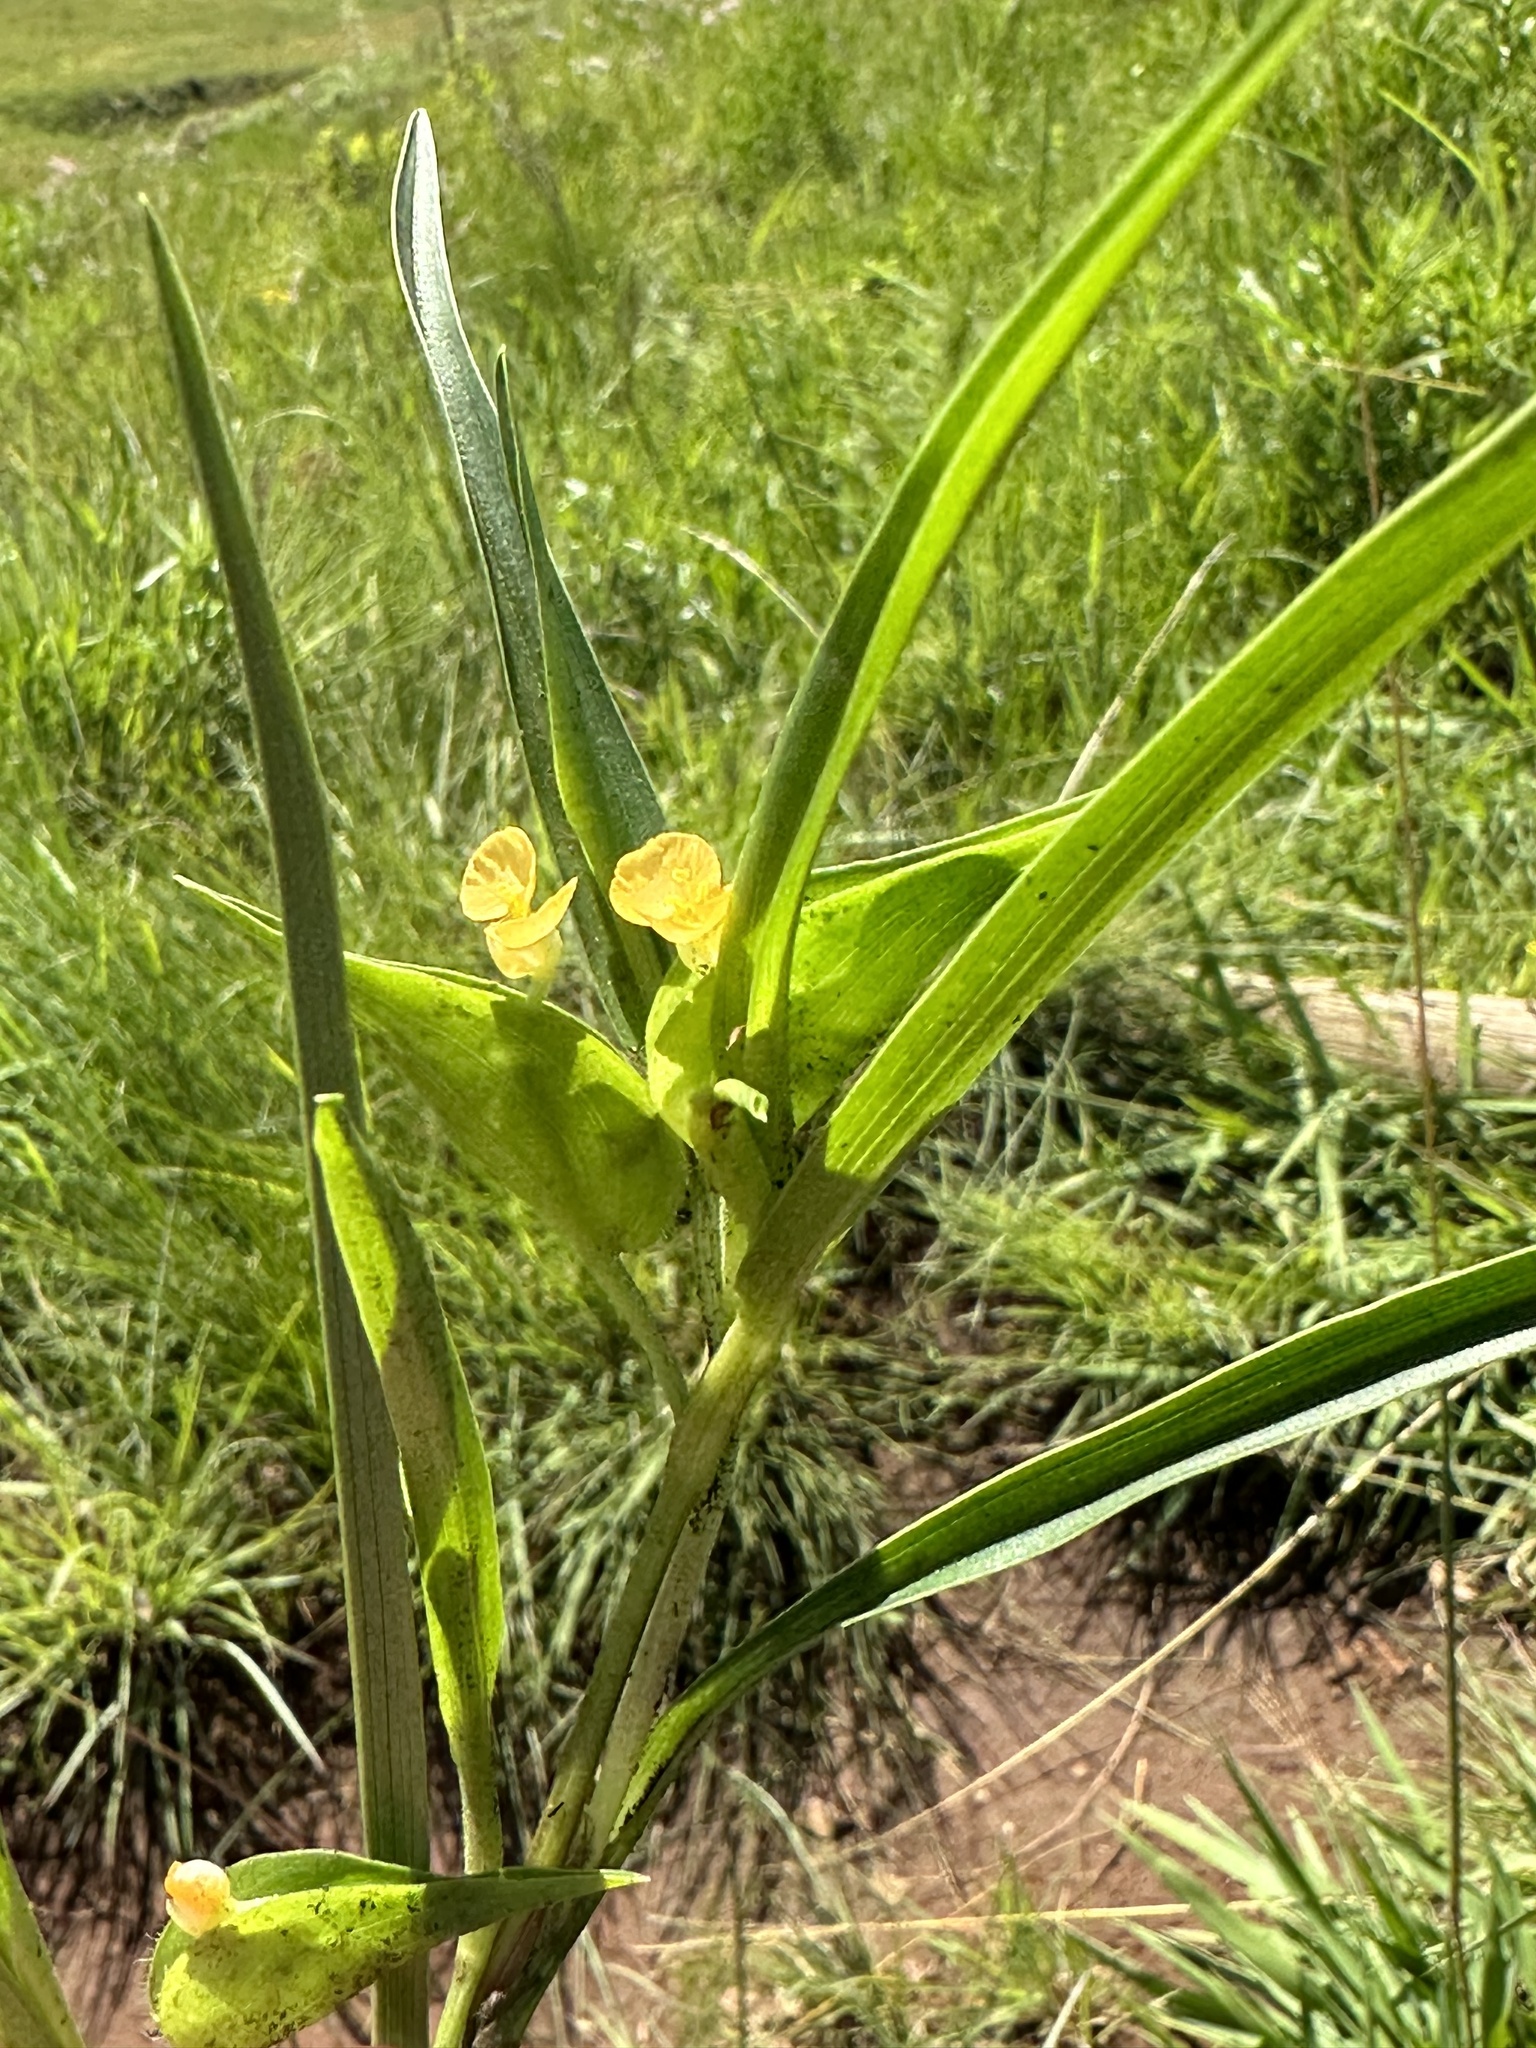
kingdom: Plantae
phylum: Tracheophyta
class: Liliopsida
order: Commelinales
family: Commelinaceae
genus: Commelina
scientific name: Commelina africana
